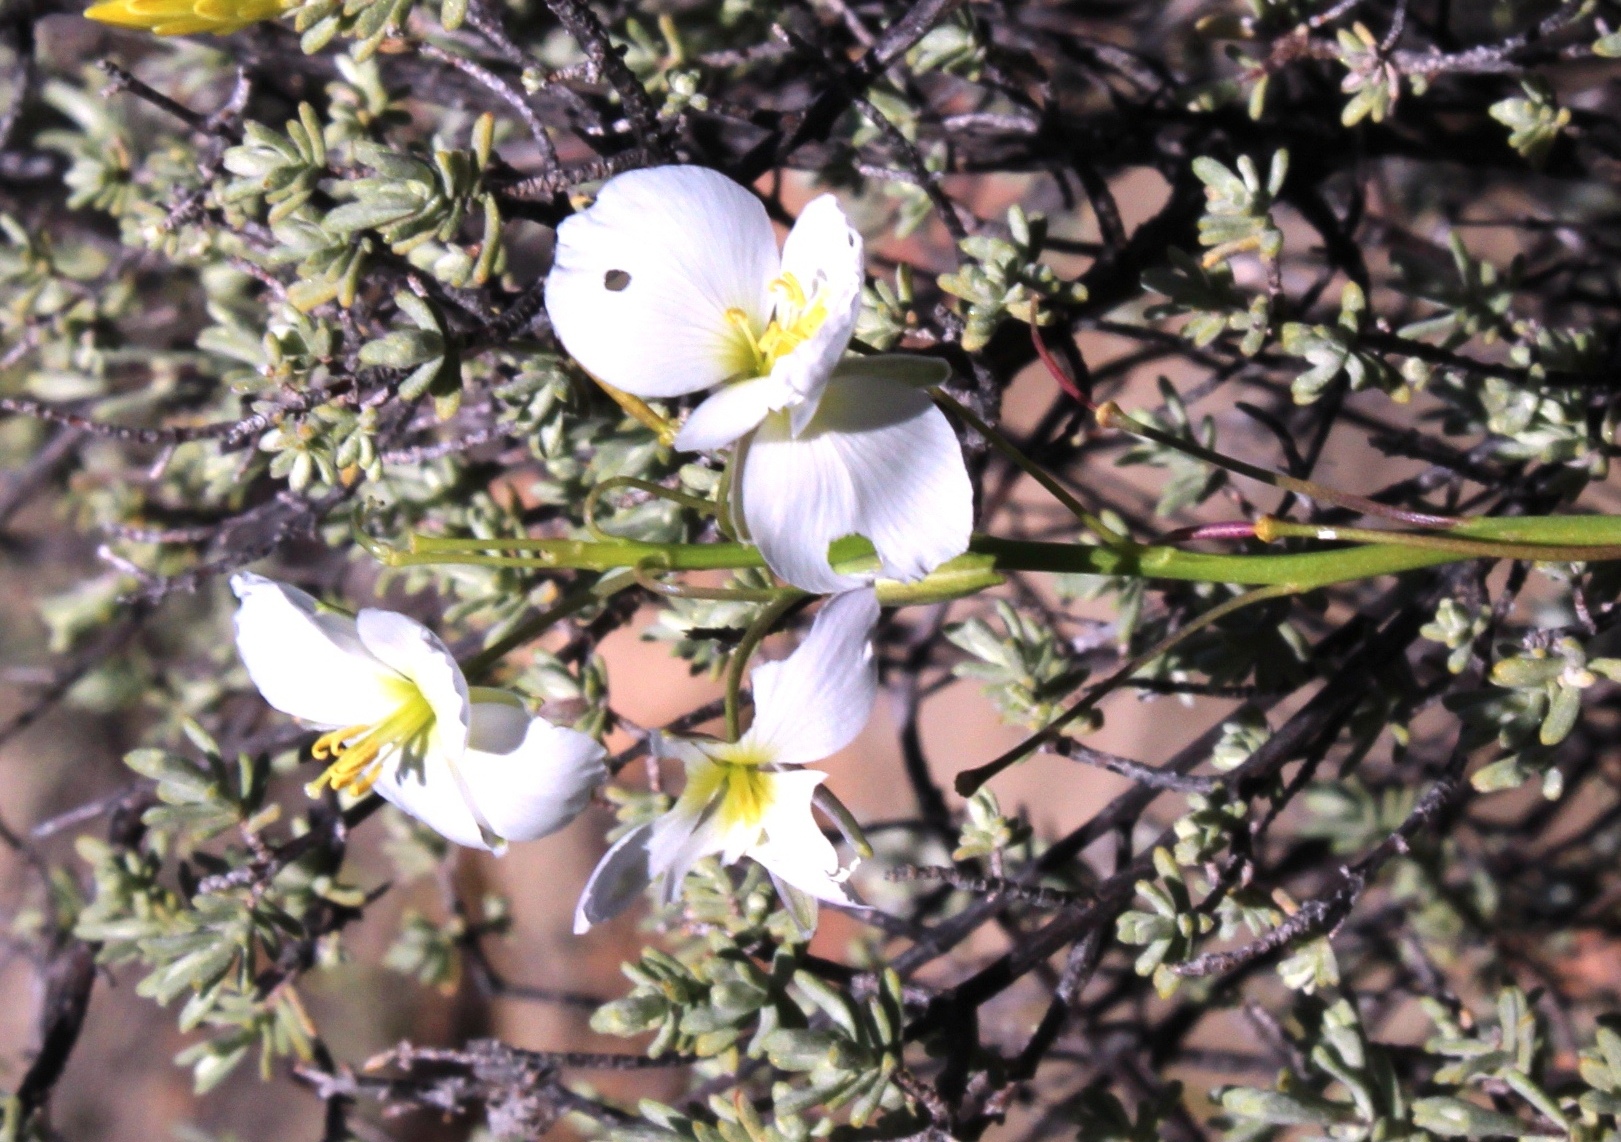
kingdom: Plantae
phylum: Tracheophyta
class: Magnoliopsida
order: Brassicales
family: Brassicaceae
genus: Heliophila
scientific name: Heliophila carnosa
